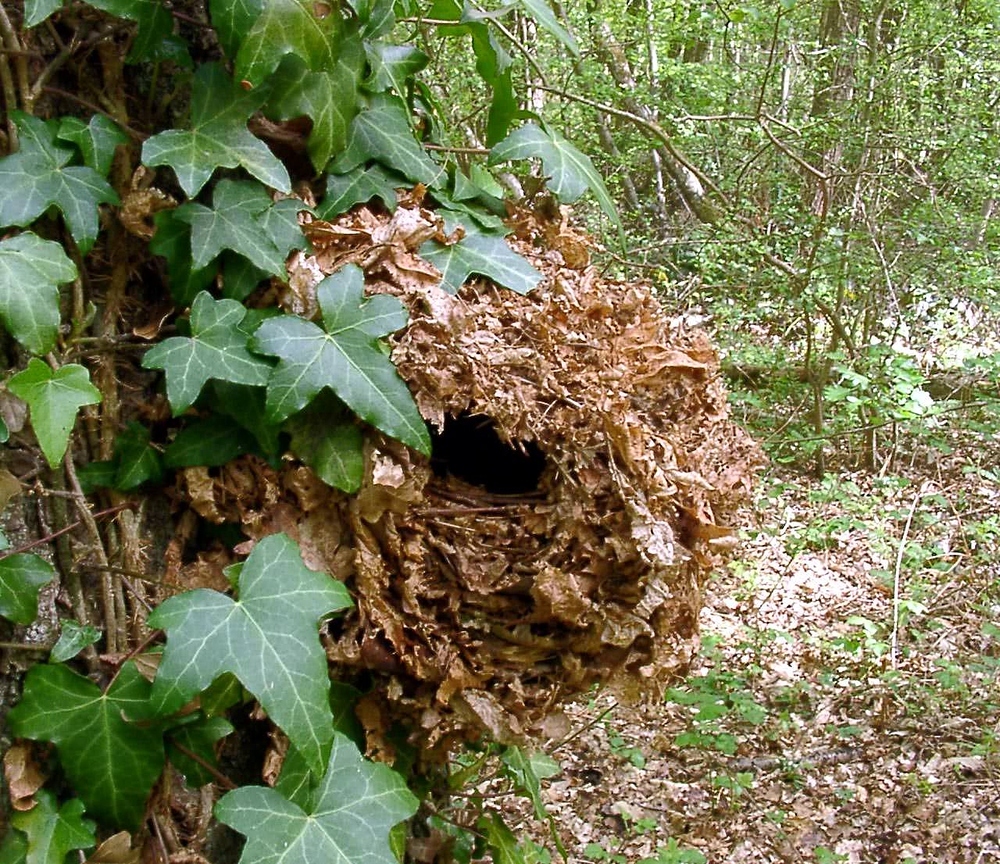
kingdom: Animalia
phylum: Chordata
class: Aves
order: Passeriformes
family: Troglodytidae
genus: Troglodytes
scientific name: Troglodytes troglodytes
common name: Eurasian wren
